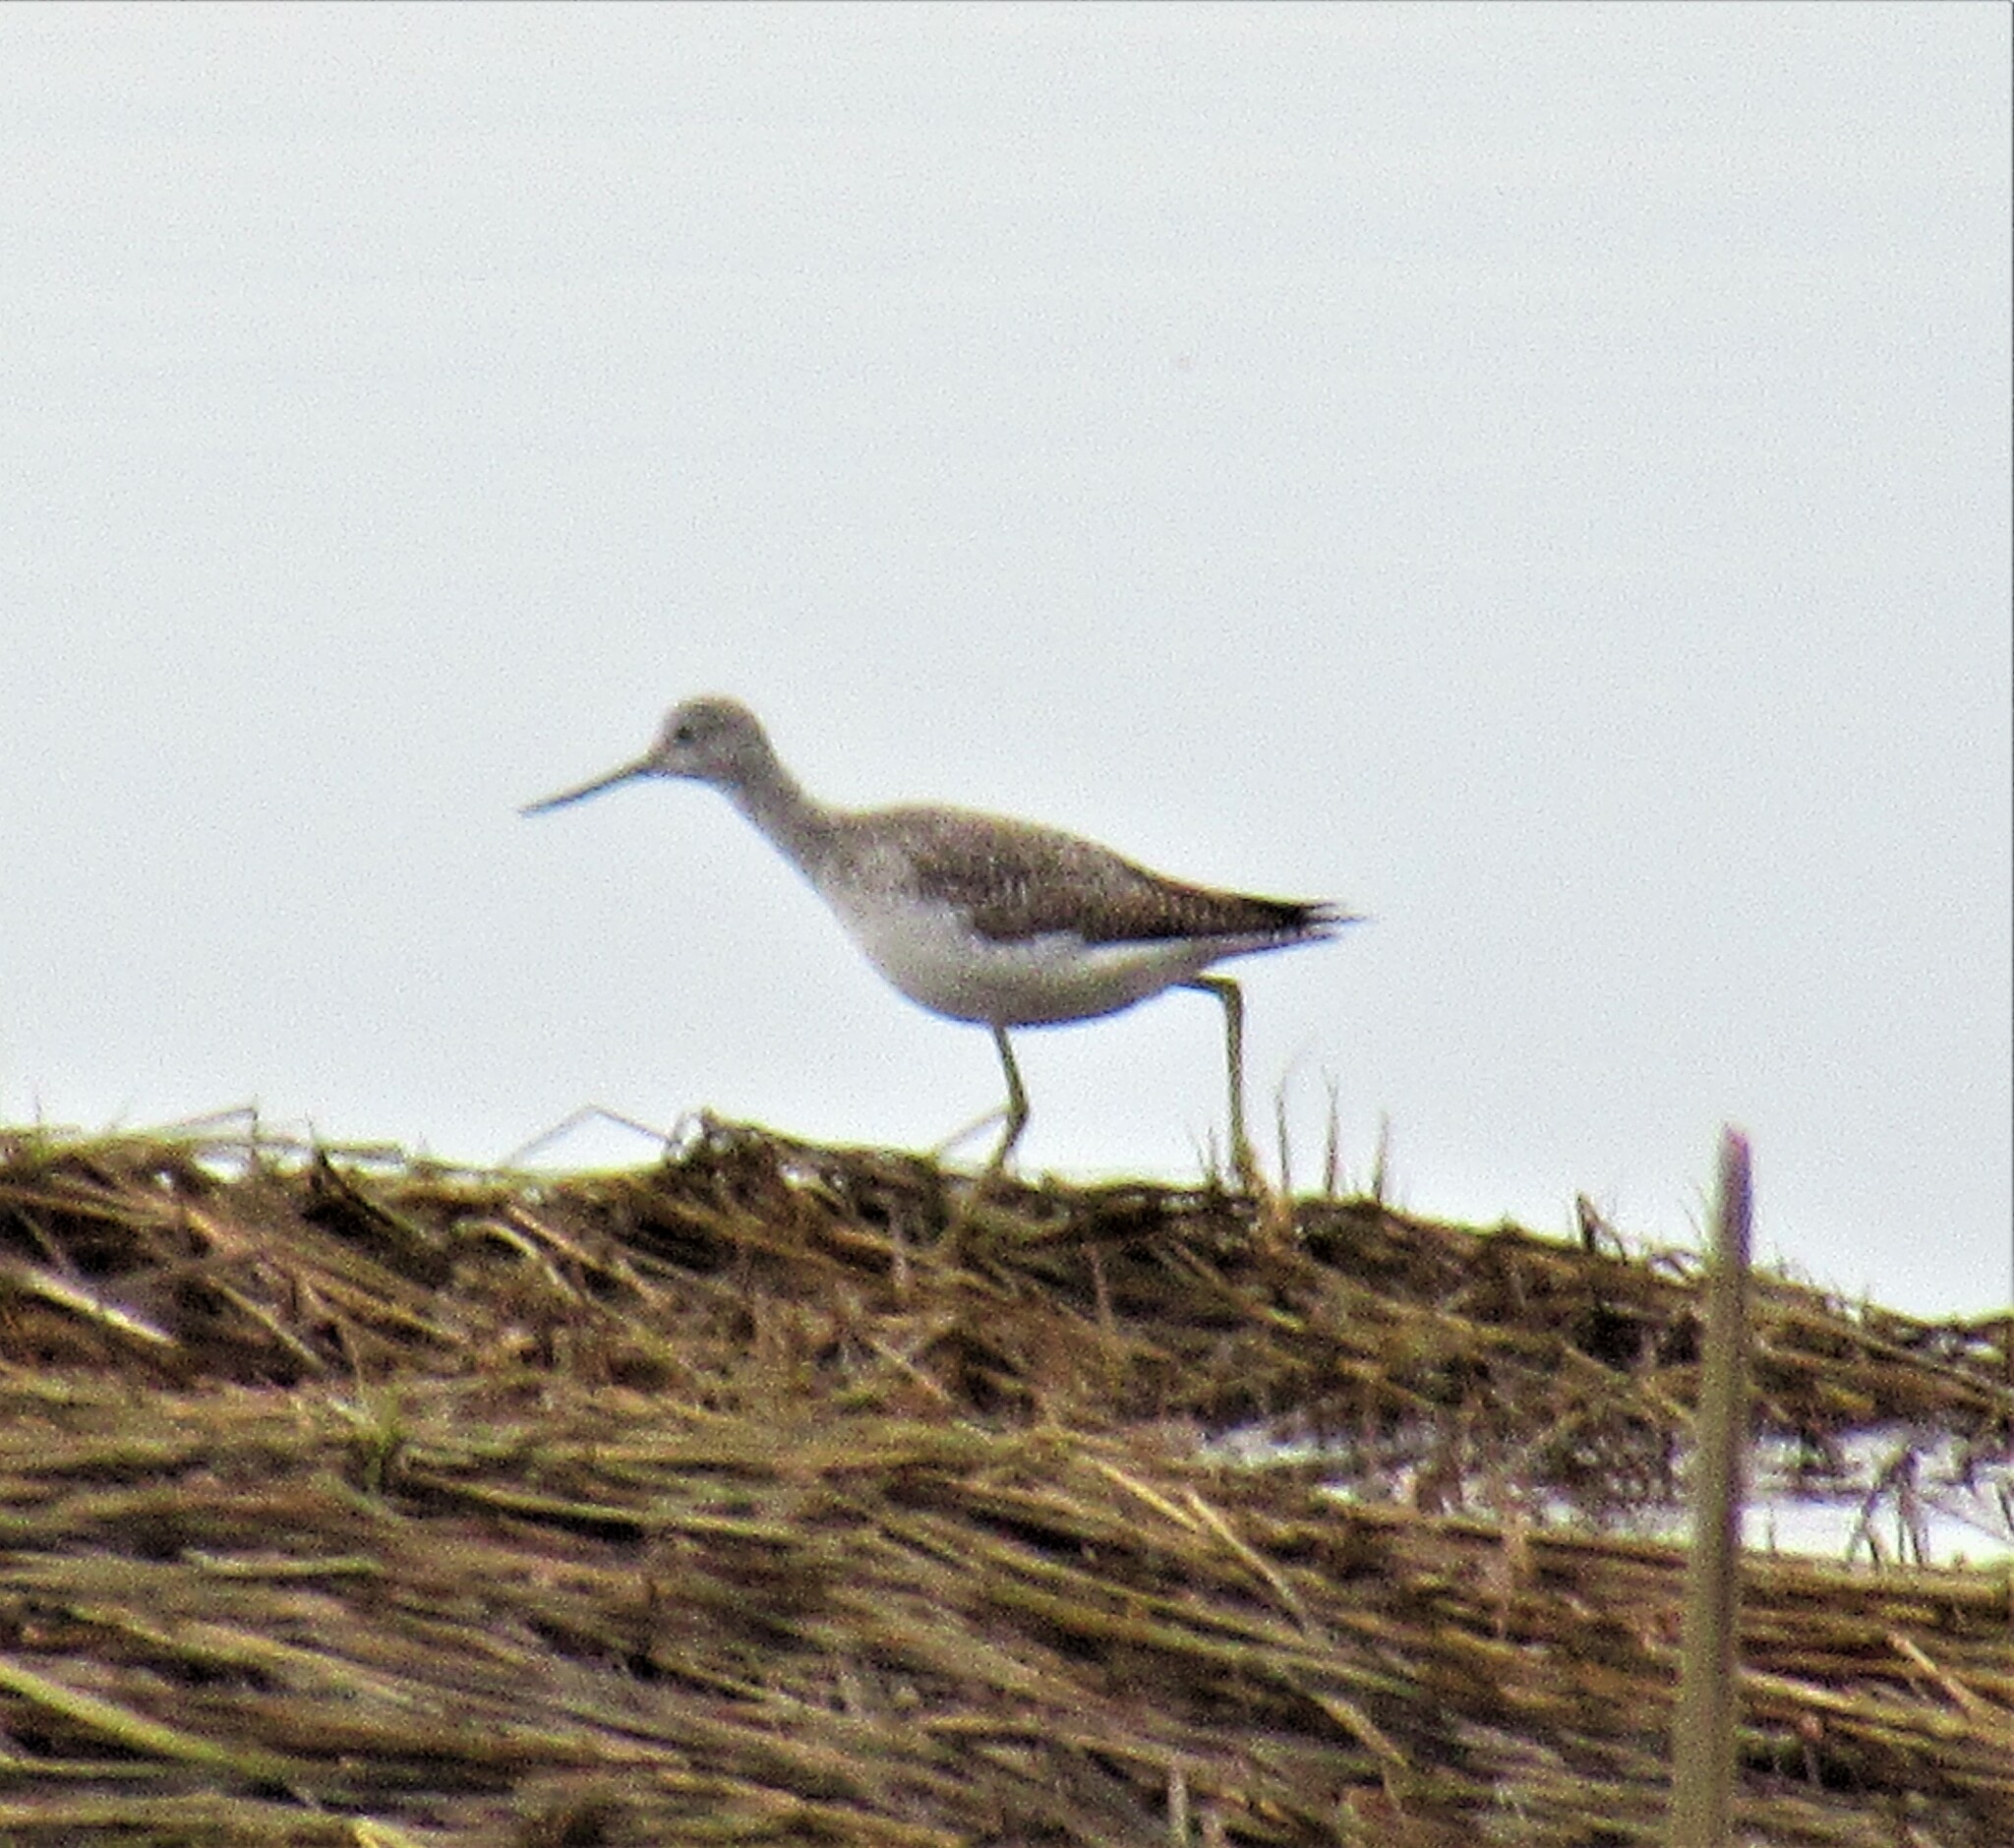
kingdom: Animalia
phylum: Chordata
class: Aves
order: Charadriiformes
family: Scolopacidae
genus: Tringa
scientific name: Tringa melanoleuca
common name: Greater yellowlegs
